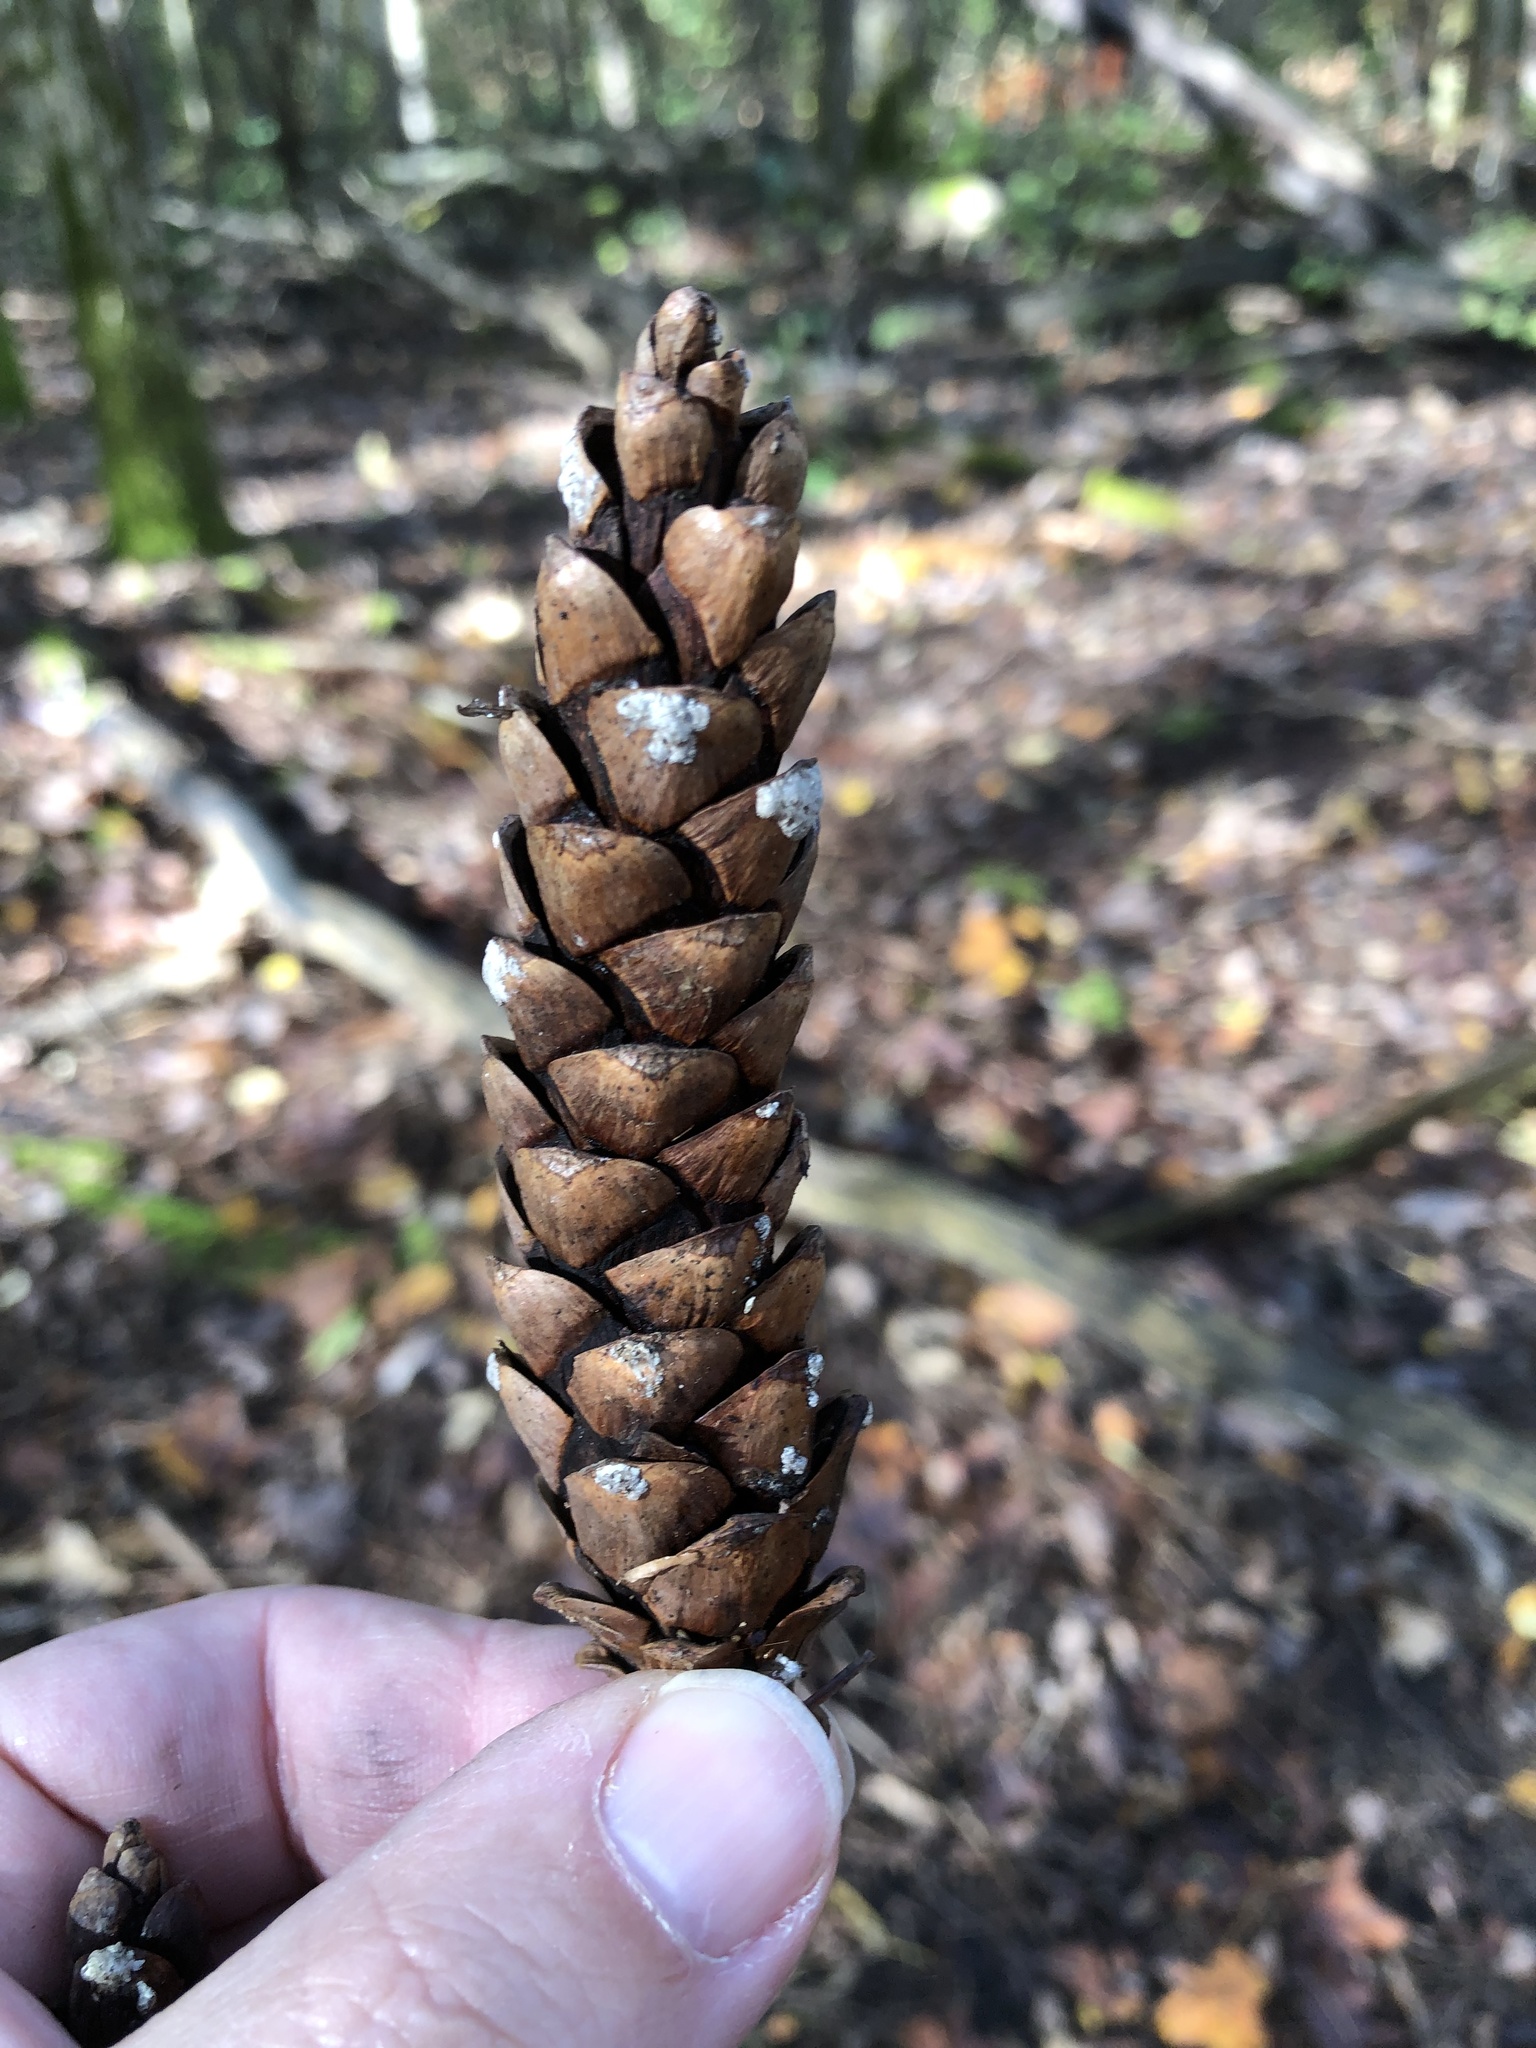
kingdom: Plantae
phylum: Tracheophyta
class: Pinopsida
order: Pinales
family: Pinaceae
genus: Pinus
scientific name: Pinus strobus
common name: Weymouth pine
